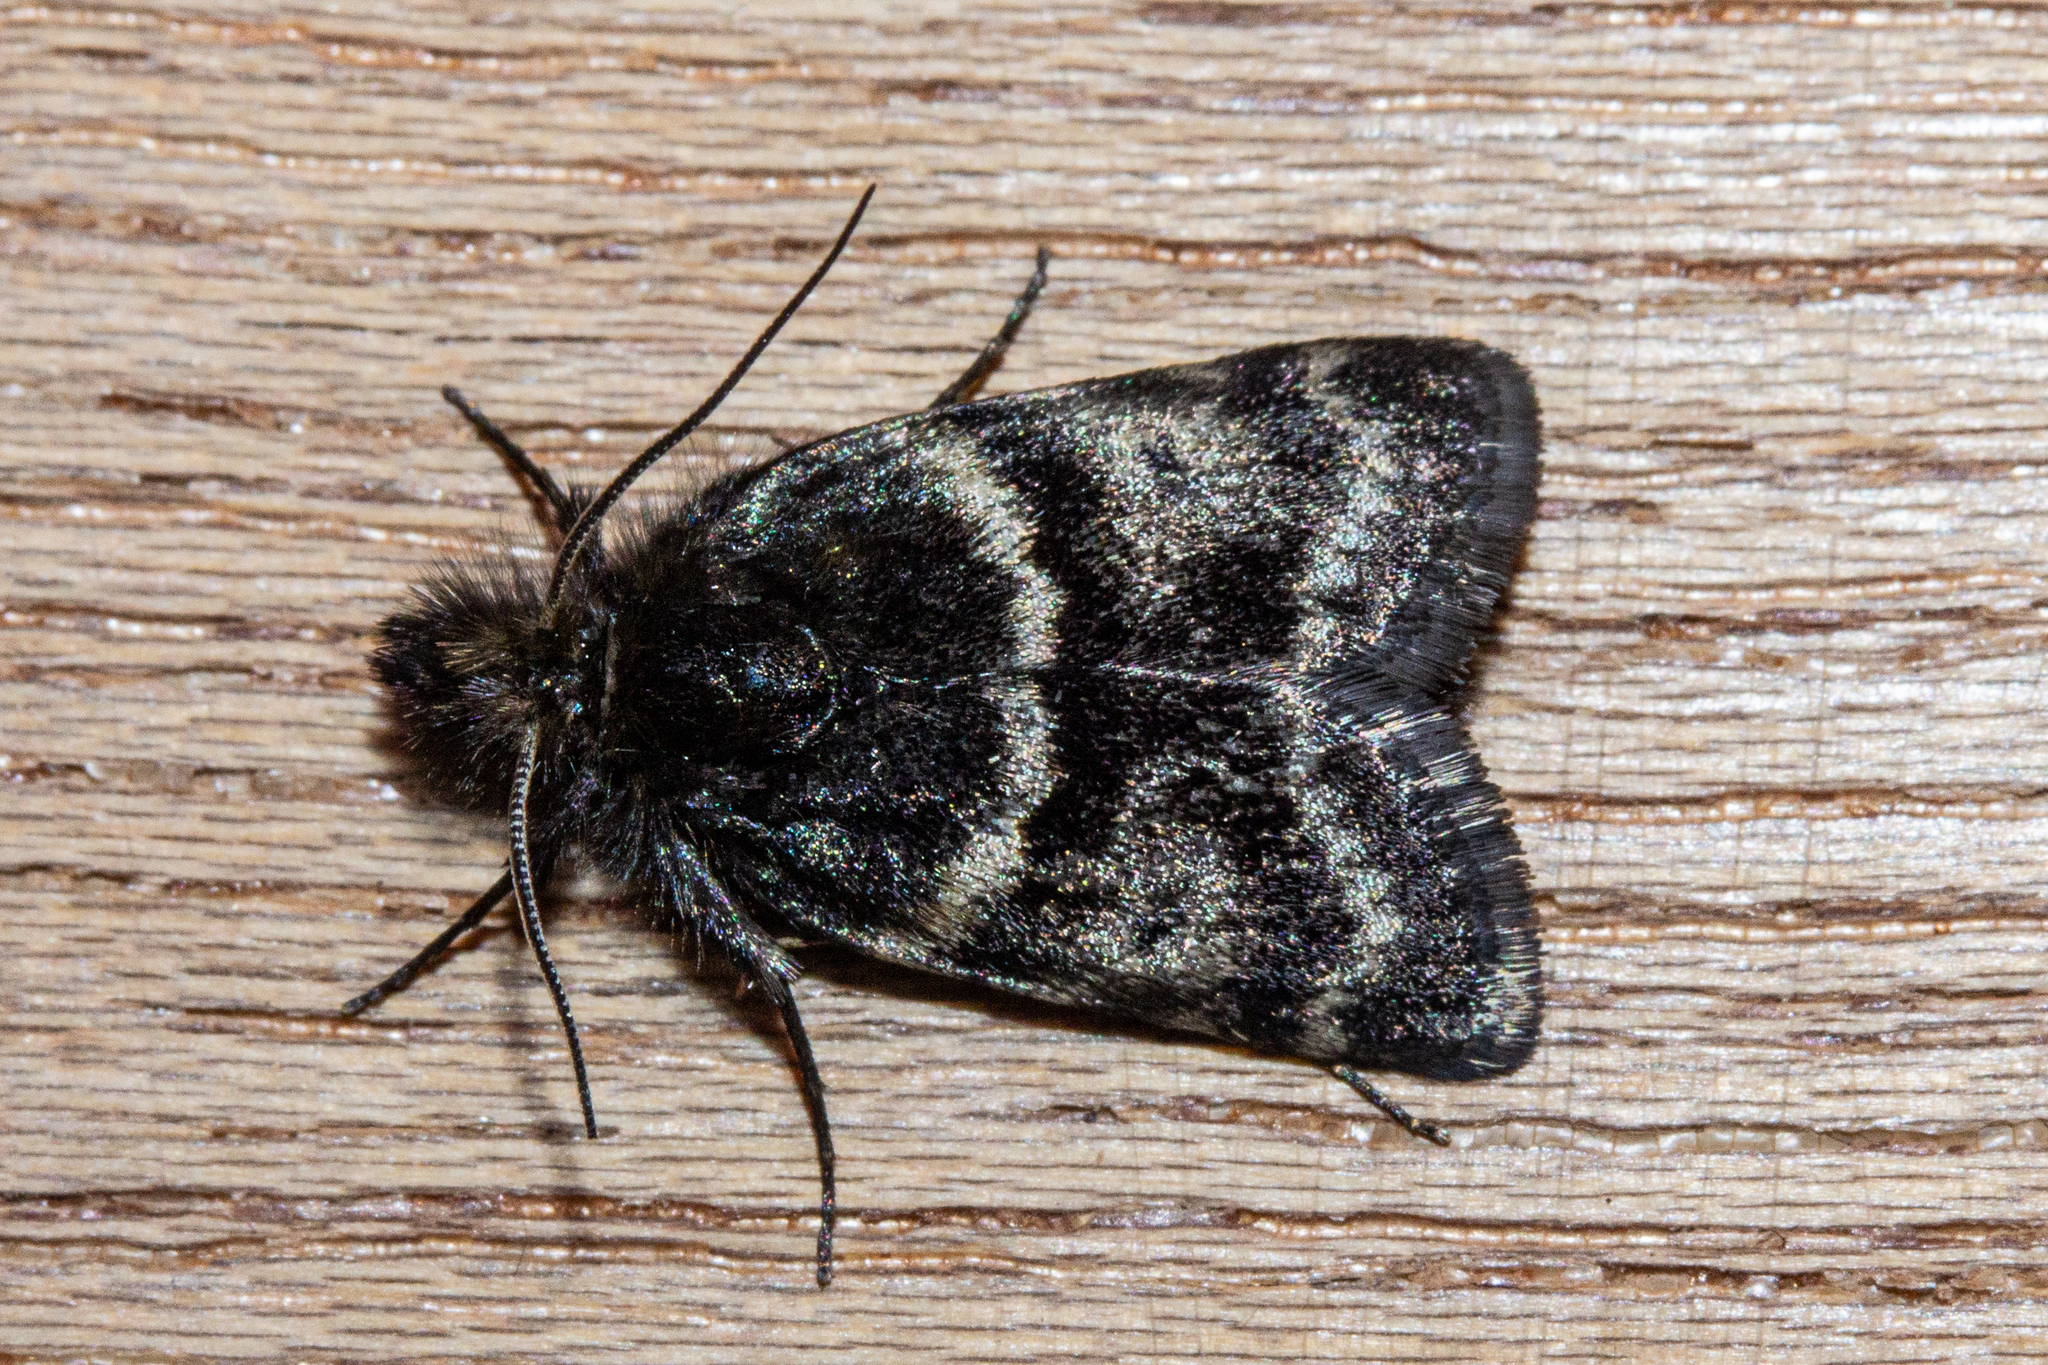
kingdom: Animalia
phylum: Arthropoda
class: Insecta
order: Lepidoptera
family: Crambidae
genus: Tauroscopa
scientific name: Tauroscopa gorgopis
